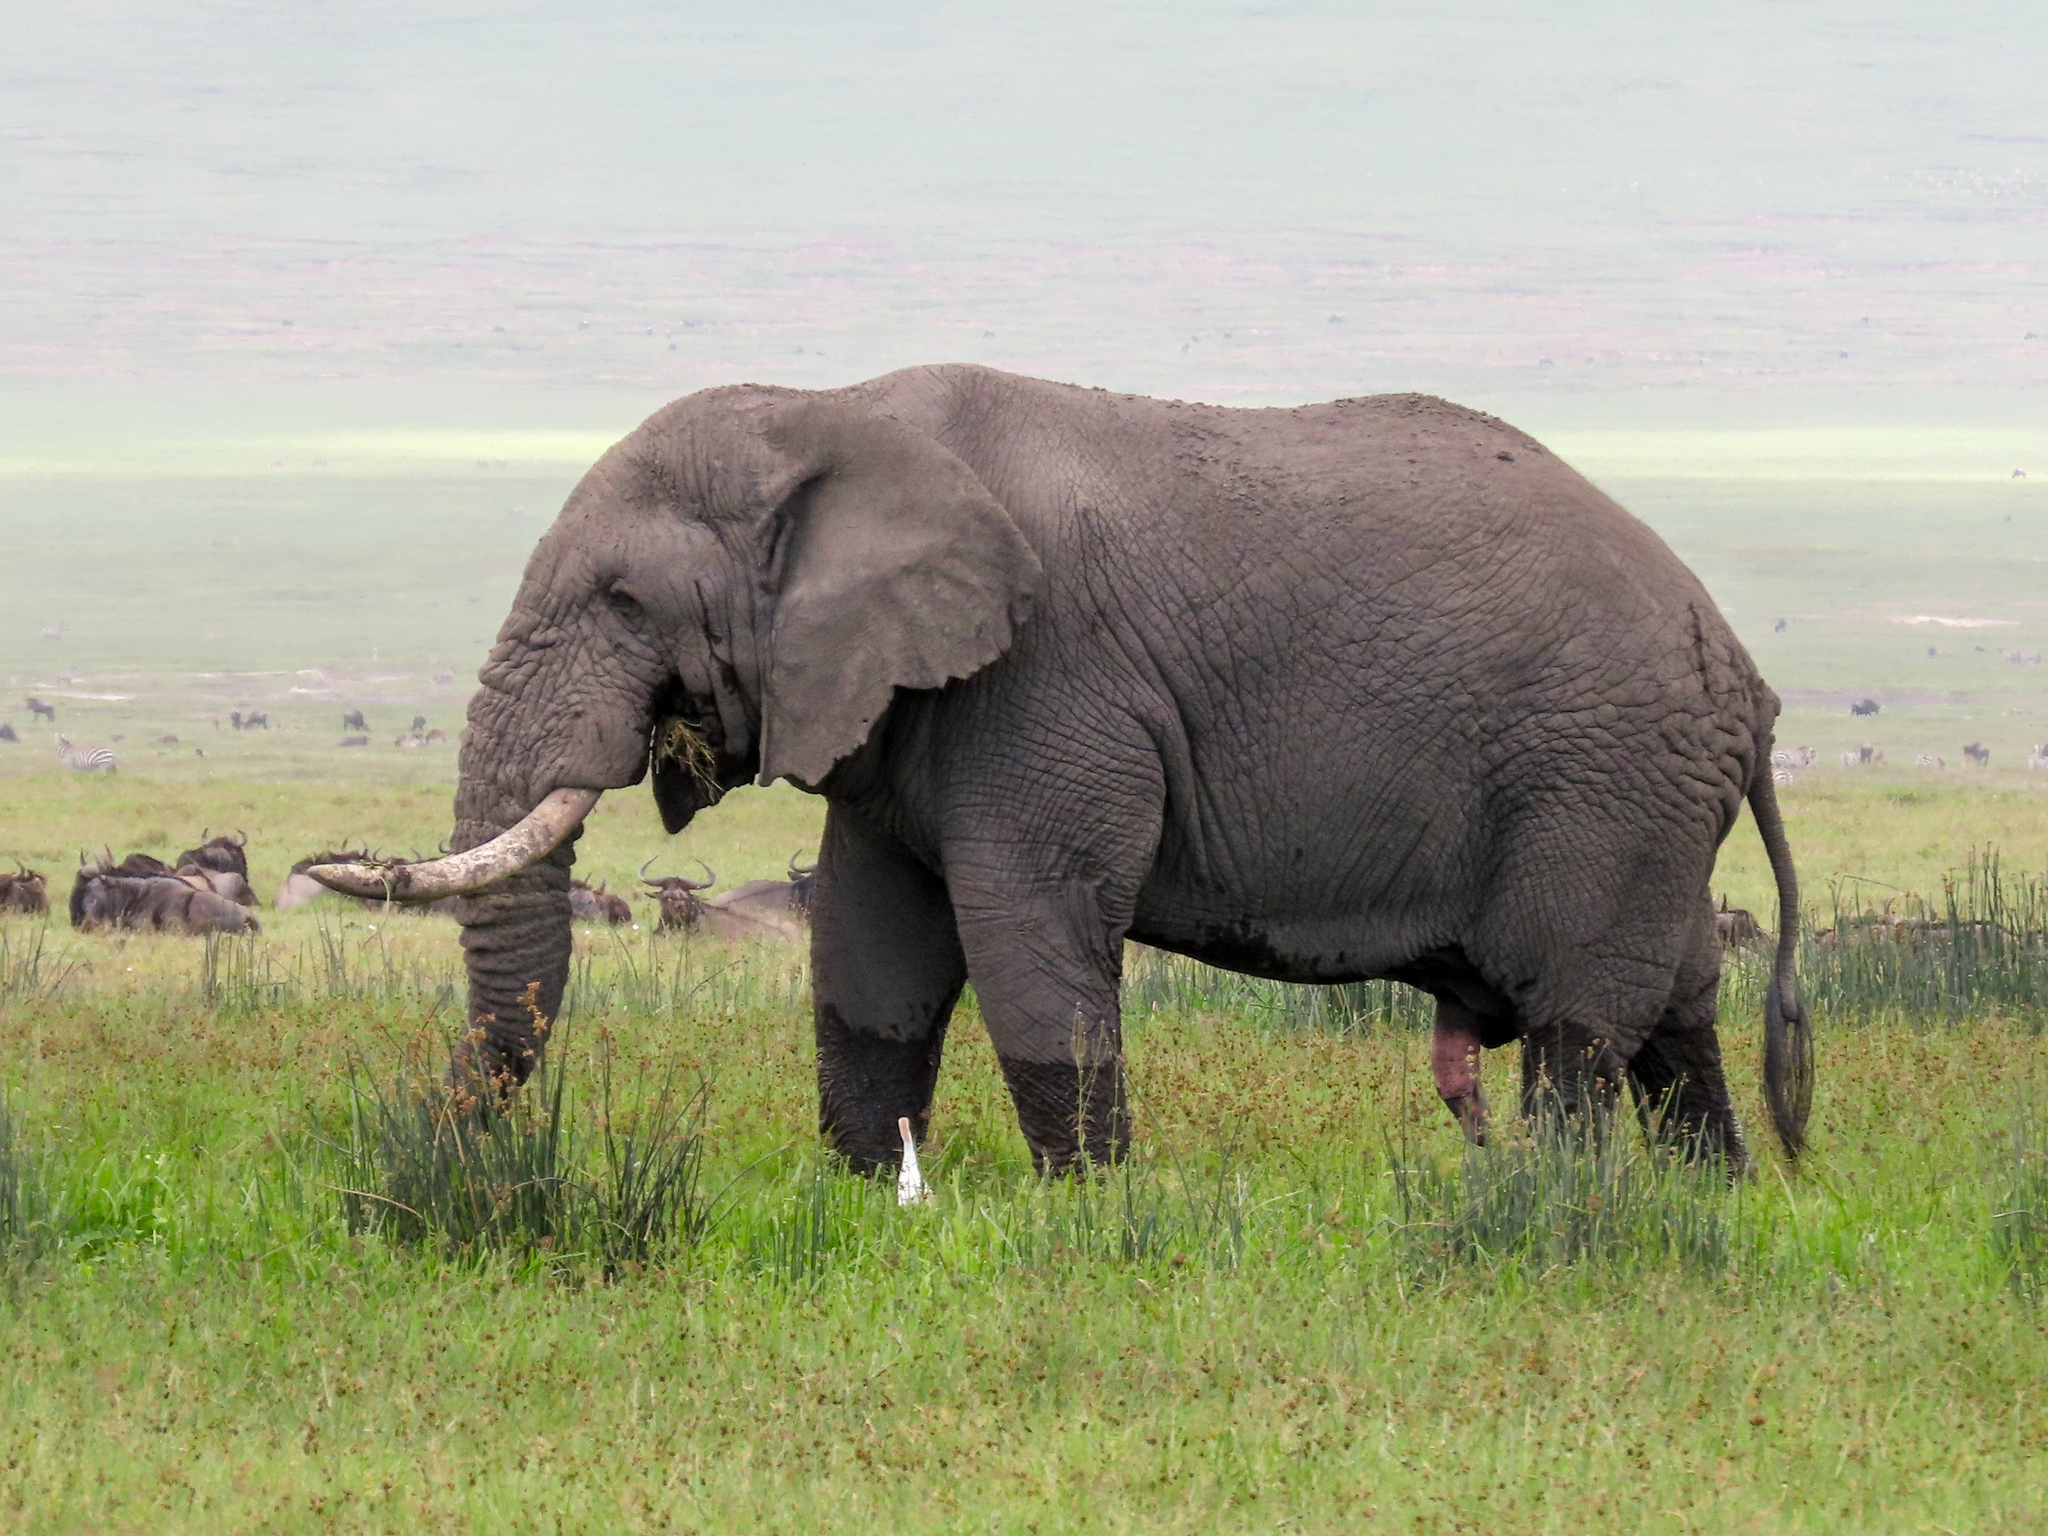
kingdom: Animalia
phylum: Chordata
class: Mammalia
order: Proboscidea
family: Elephantidae
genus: Loxodonta
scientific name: Loxodonta africana
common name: African elephant
